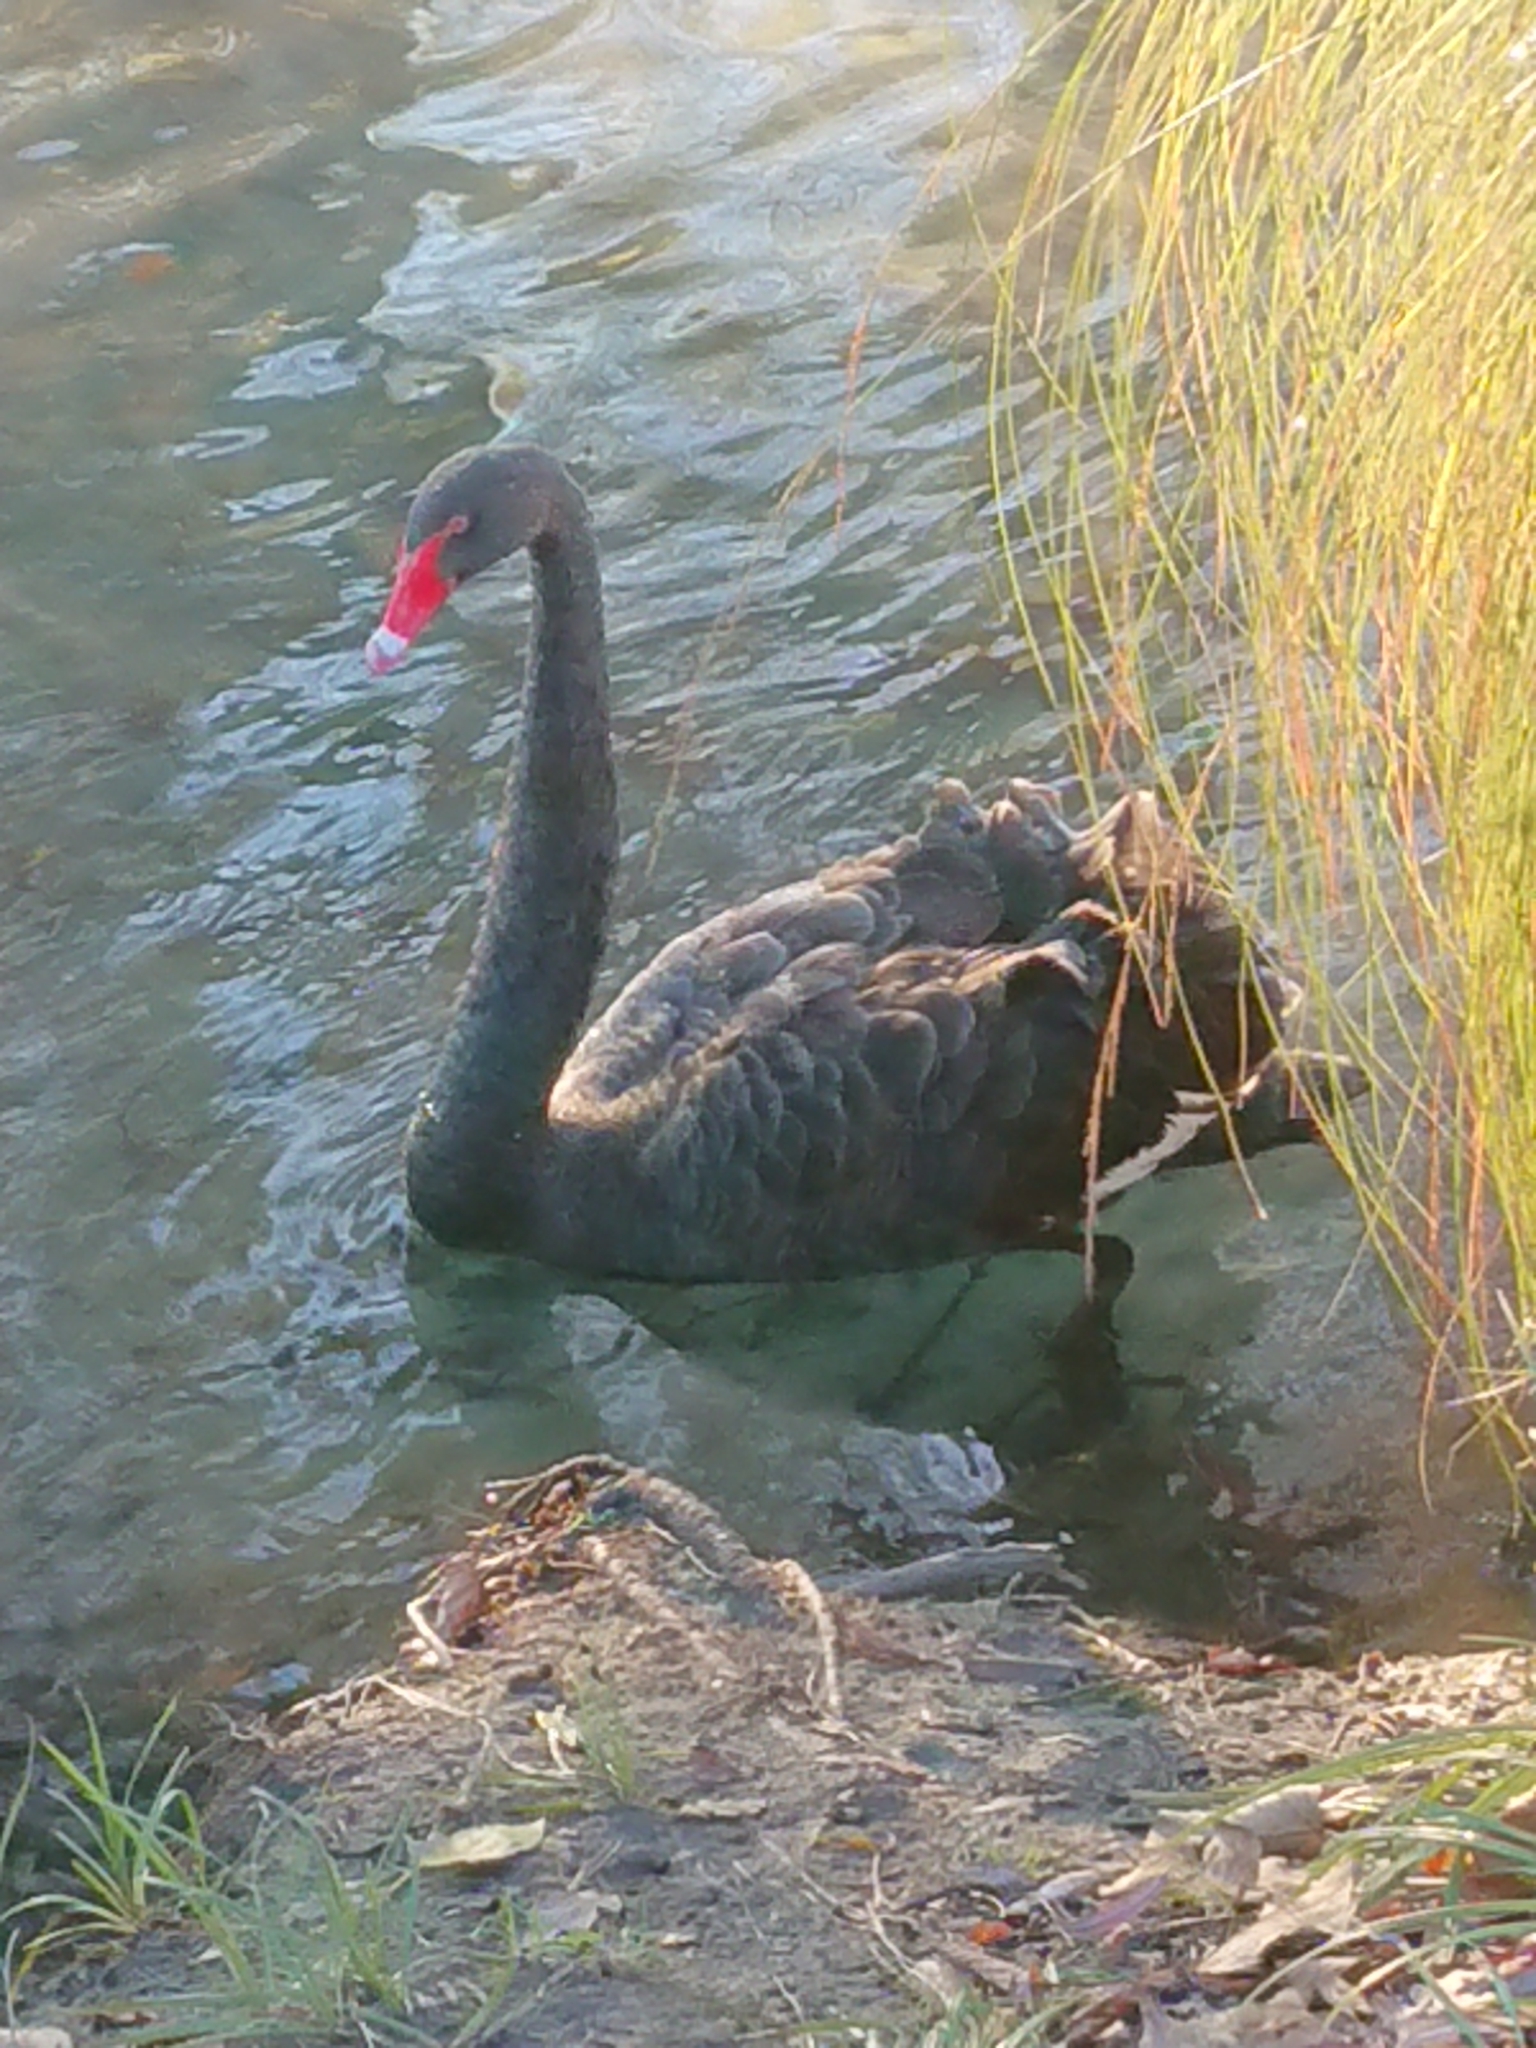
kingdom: Animalia
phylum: Chordata
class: Aves
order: Anseriformes
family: Anatidae
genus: Cygnus
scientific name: Cygnus atratus
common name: Black swan
